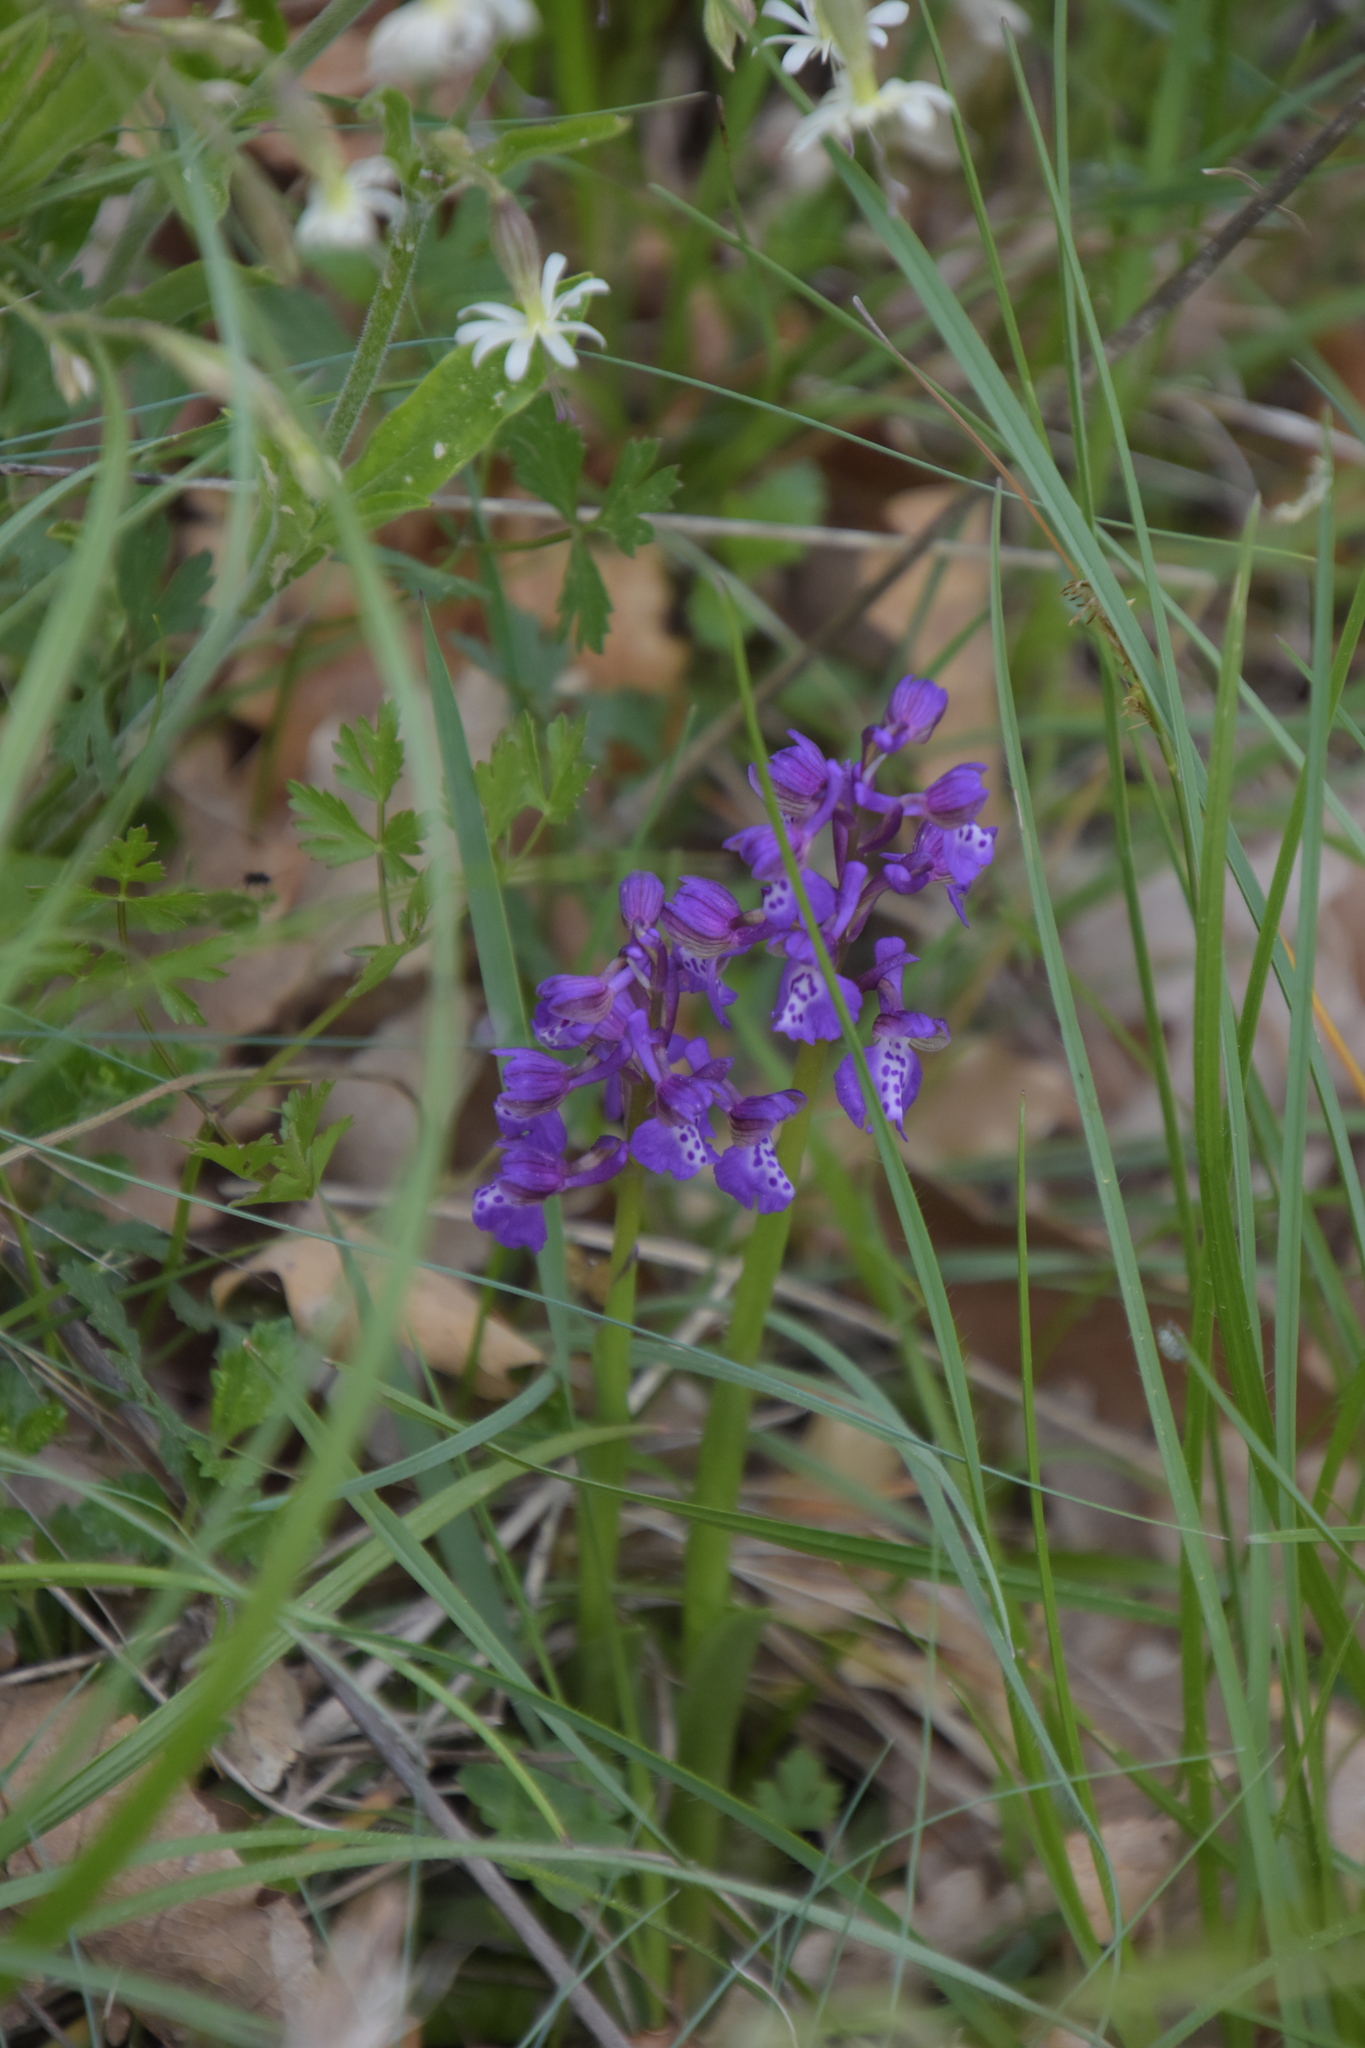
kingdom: Plantae
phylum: Tracheophyta
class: Liliopsida
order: Asparagales
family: Orchidaceae
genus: Anacamptis
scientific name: Anacamptis morio
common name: Green-winged orchid
